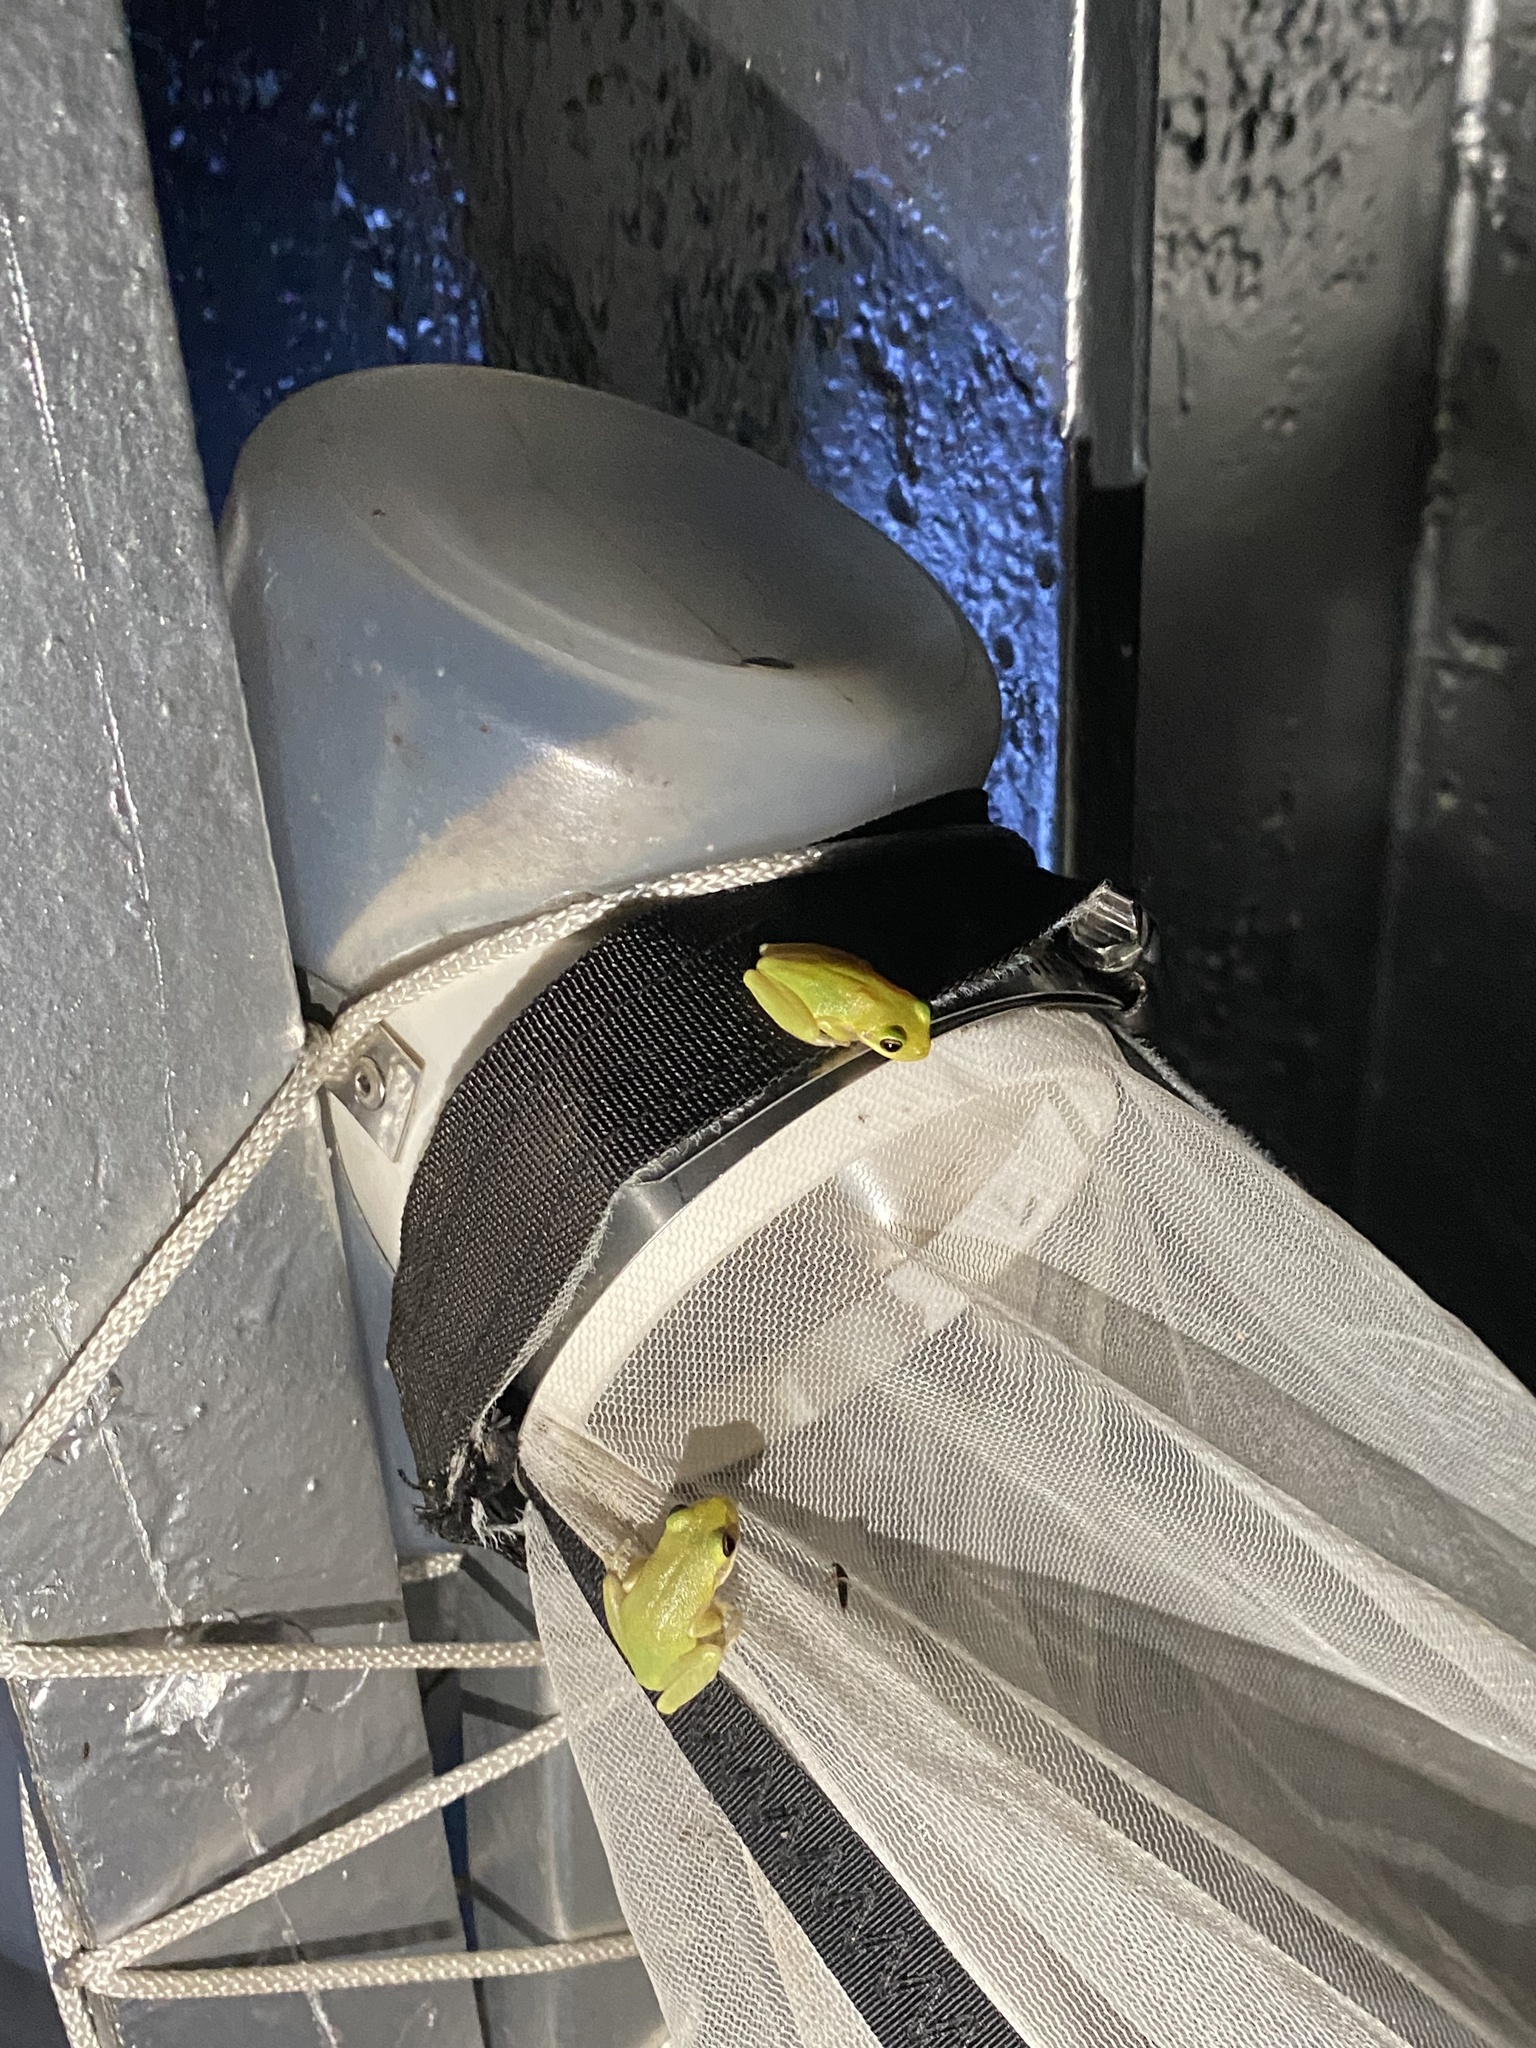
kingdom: Animalia
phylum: Chordata
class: Amphibia
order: Anura
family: Hylidae
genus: Dryophytes
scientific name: Dryophytes squirellus
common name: Squirrel treefrog
